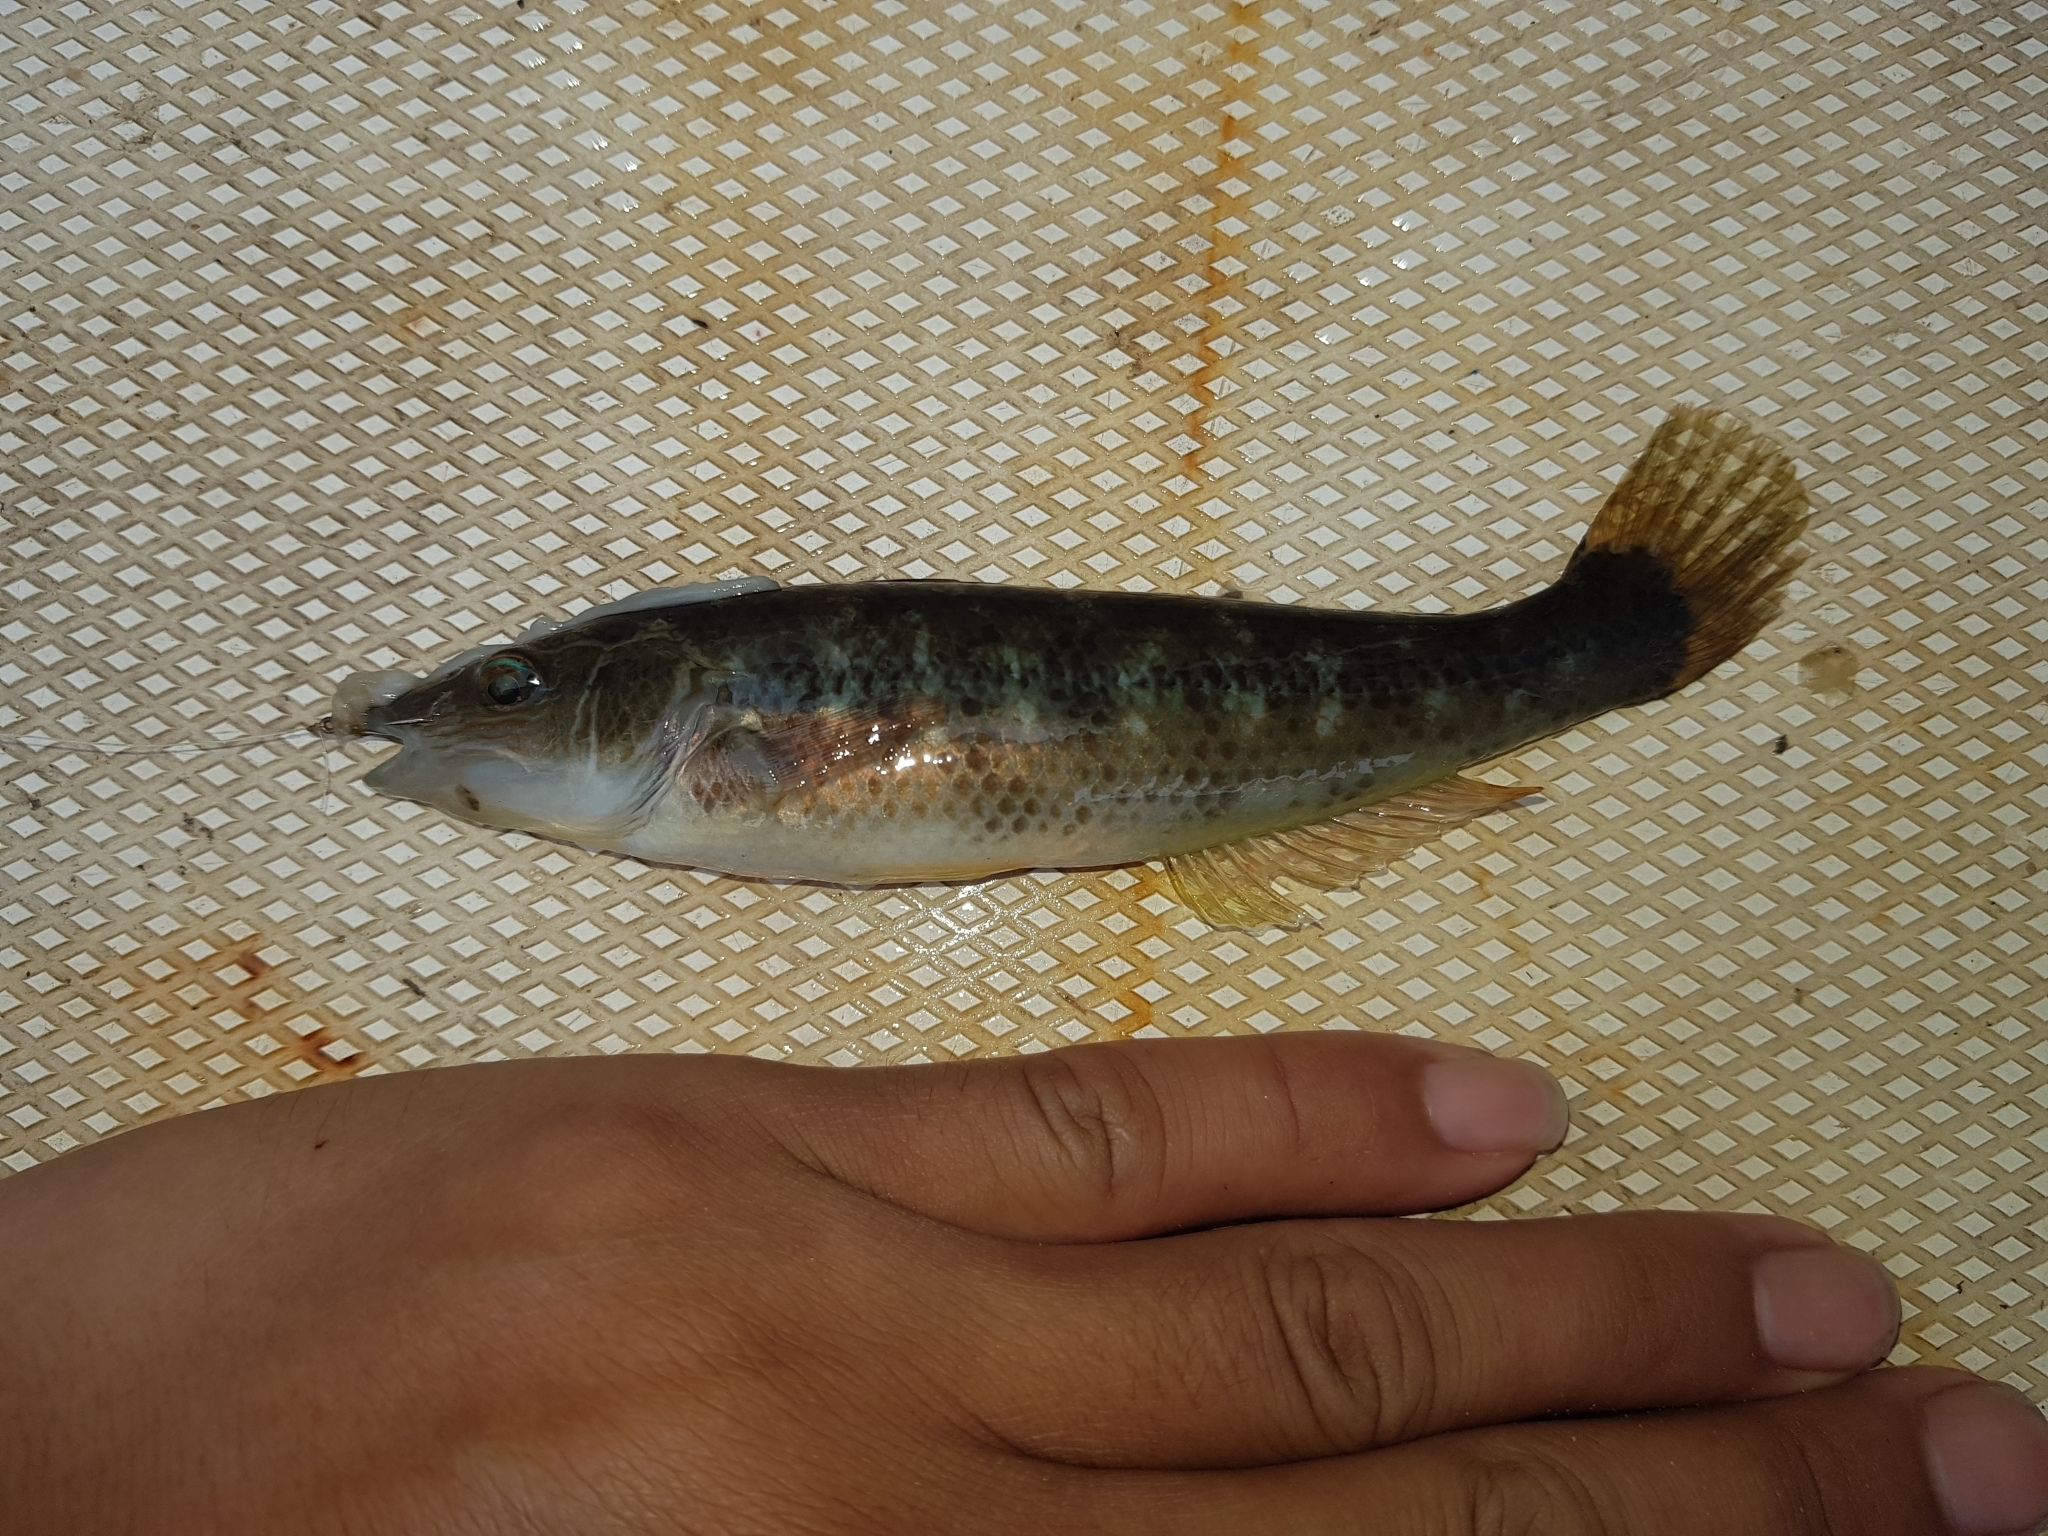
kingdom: Animalia
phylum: Chordata
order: Perciformes
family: Odacidae
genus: Neoodax
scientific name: Neoodax balteatus
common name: Ground mullet
